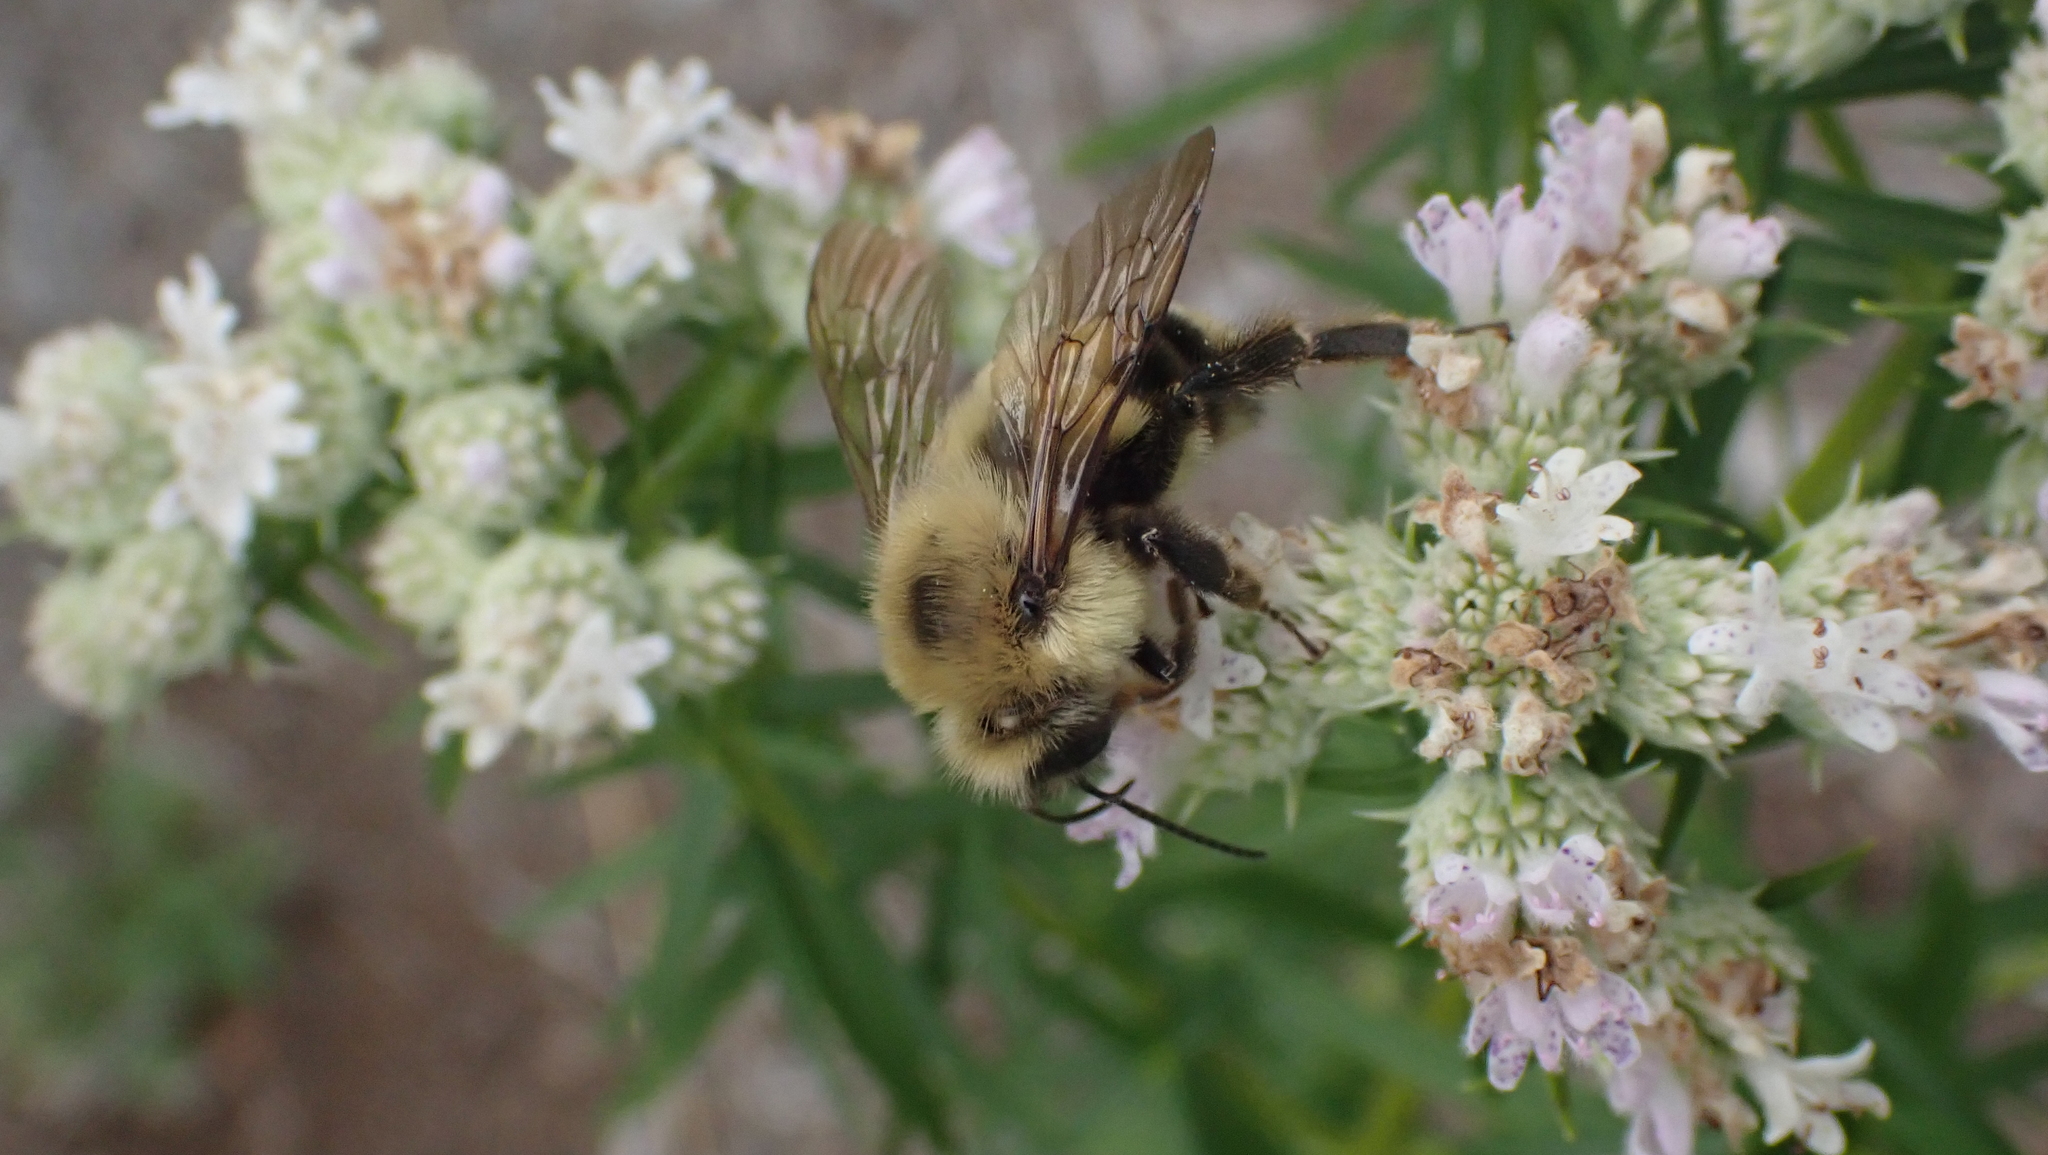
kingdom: Animalia
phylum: Arthropoda
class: Insecta
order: Hymenoptera
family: Apidae
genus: Bombus
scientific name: Bombus bimaculatus
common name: Two-spotted bumble bee
